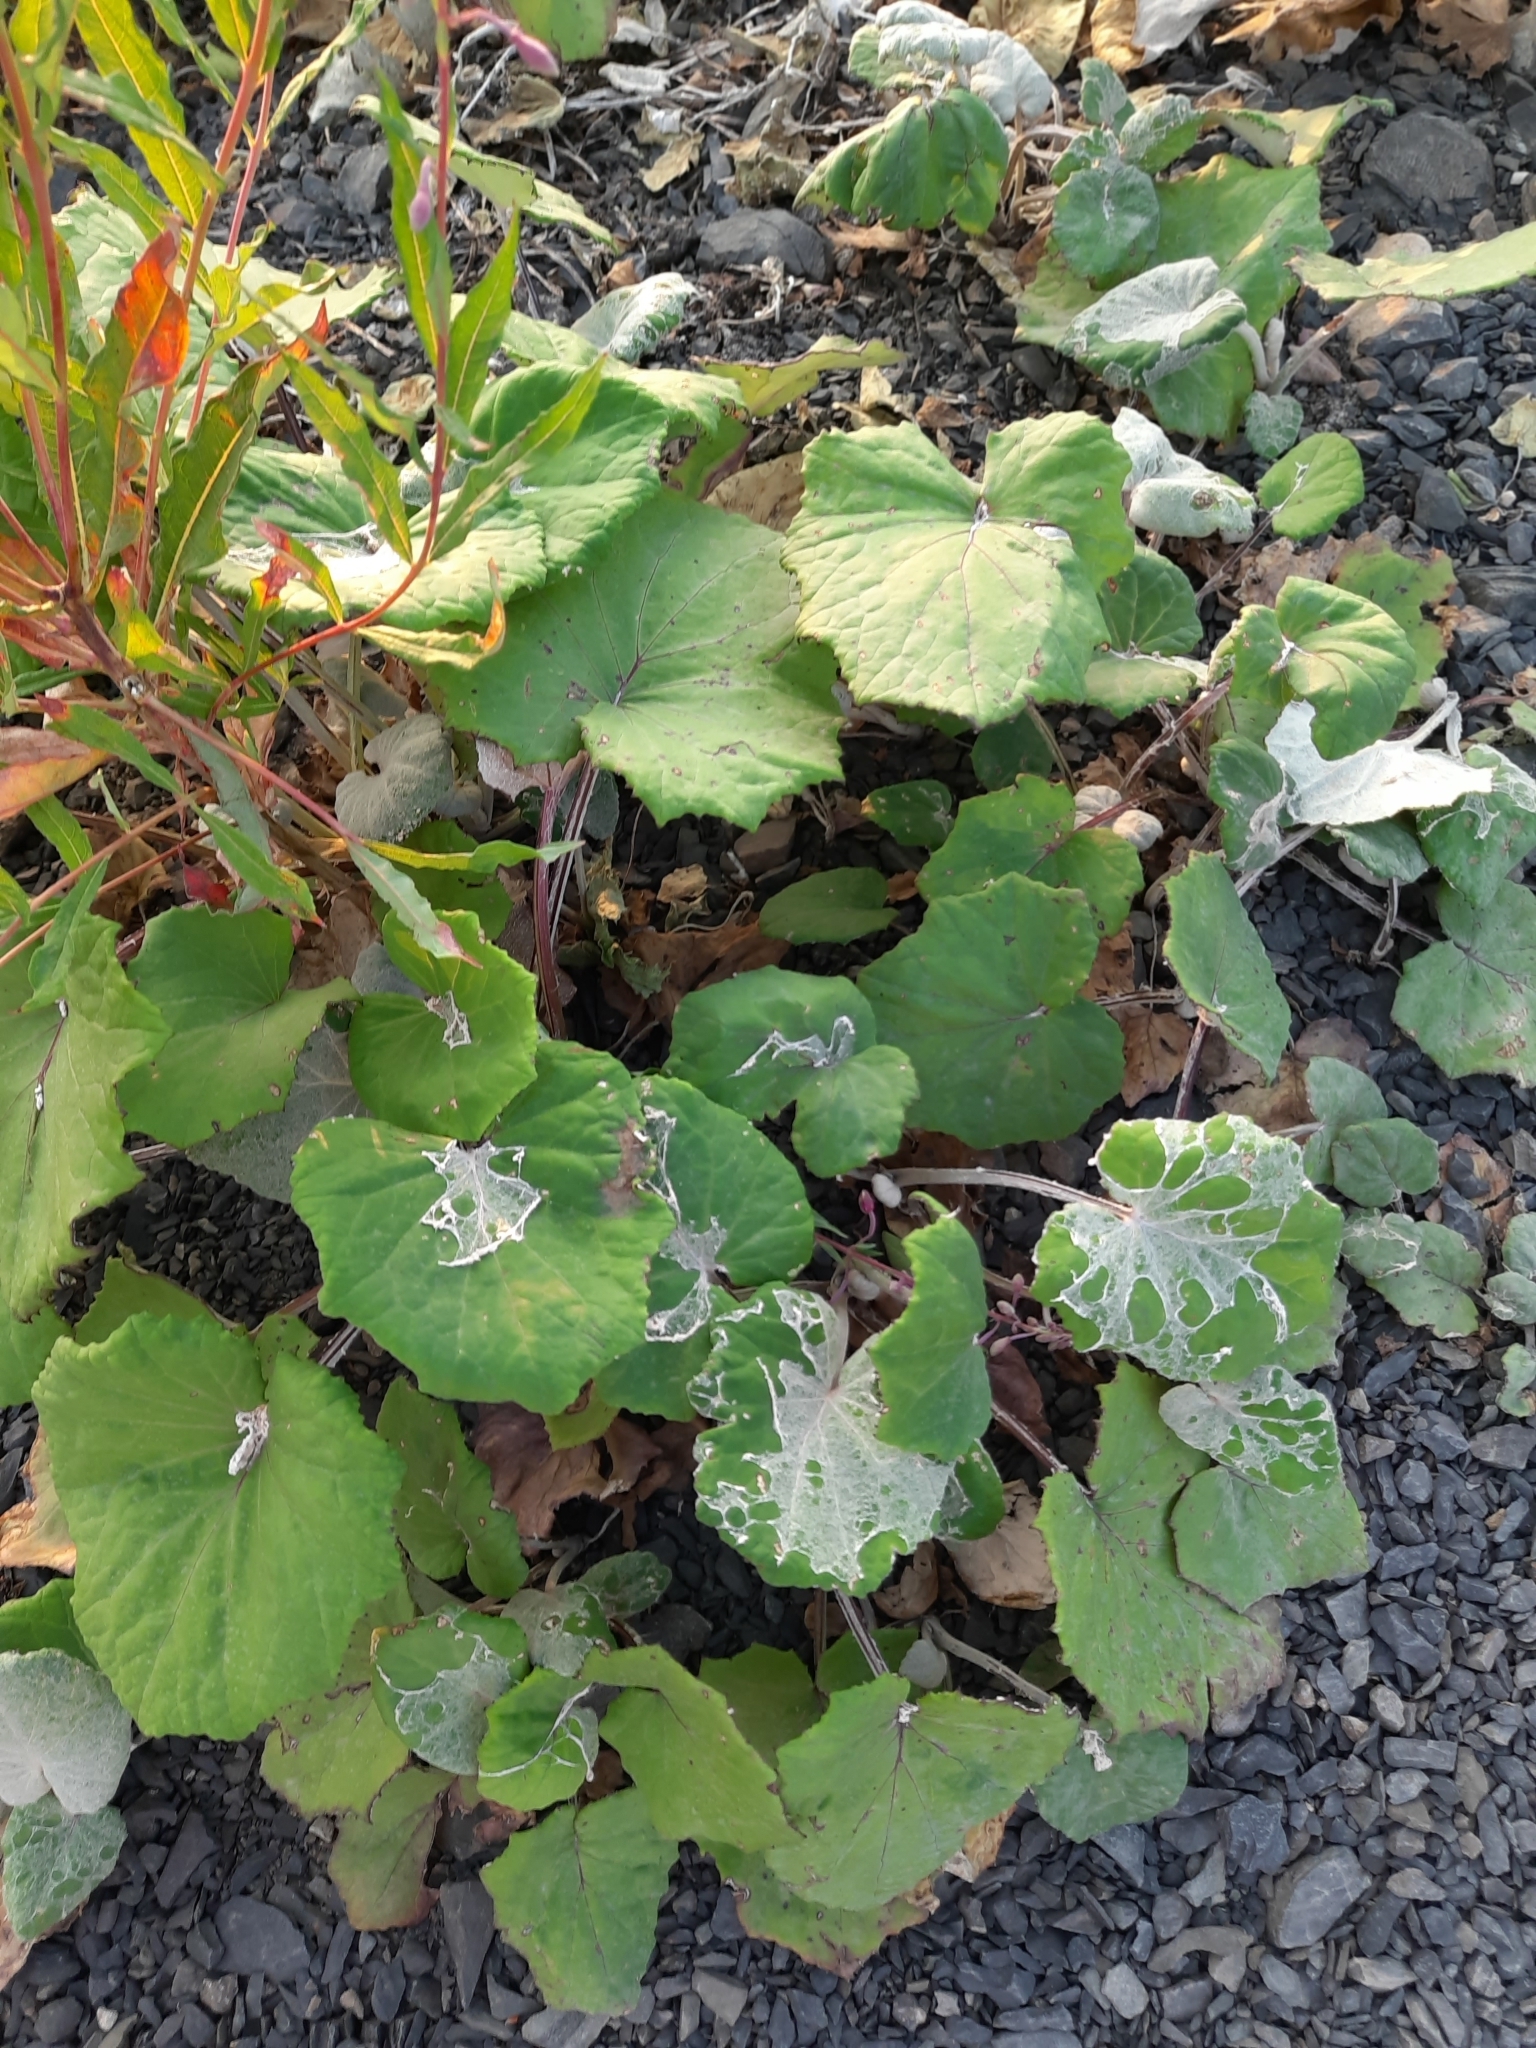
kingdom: Plantae
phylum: Tracheophyta
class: Magnoliopsida
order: Asterales
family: Asteraceae
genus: Tussilago
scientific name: Tussilago farfara
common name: Coltsfoot
